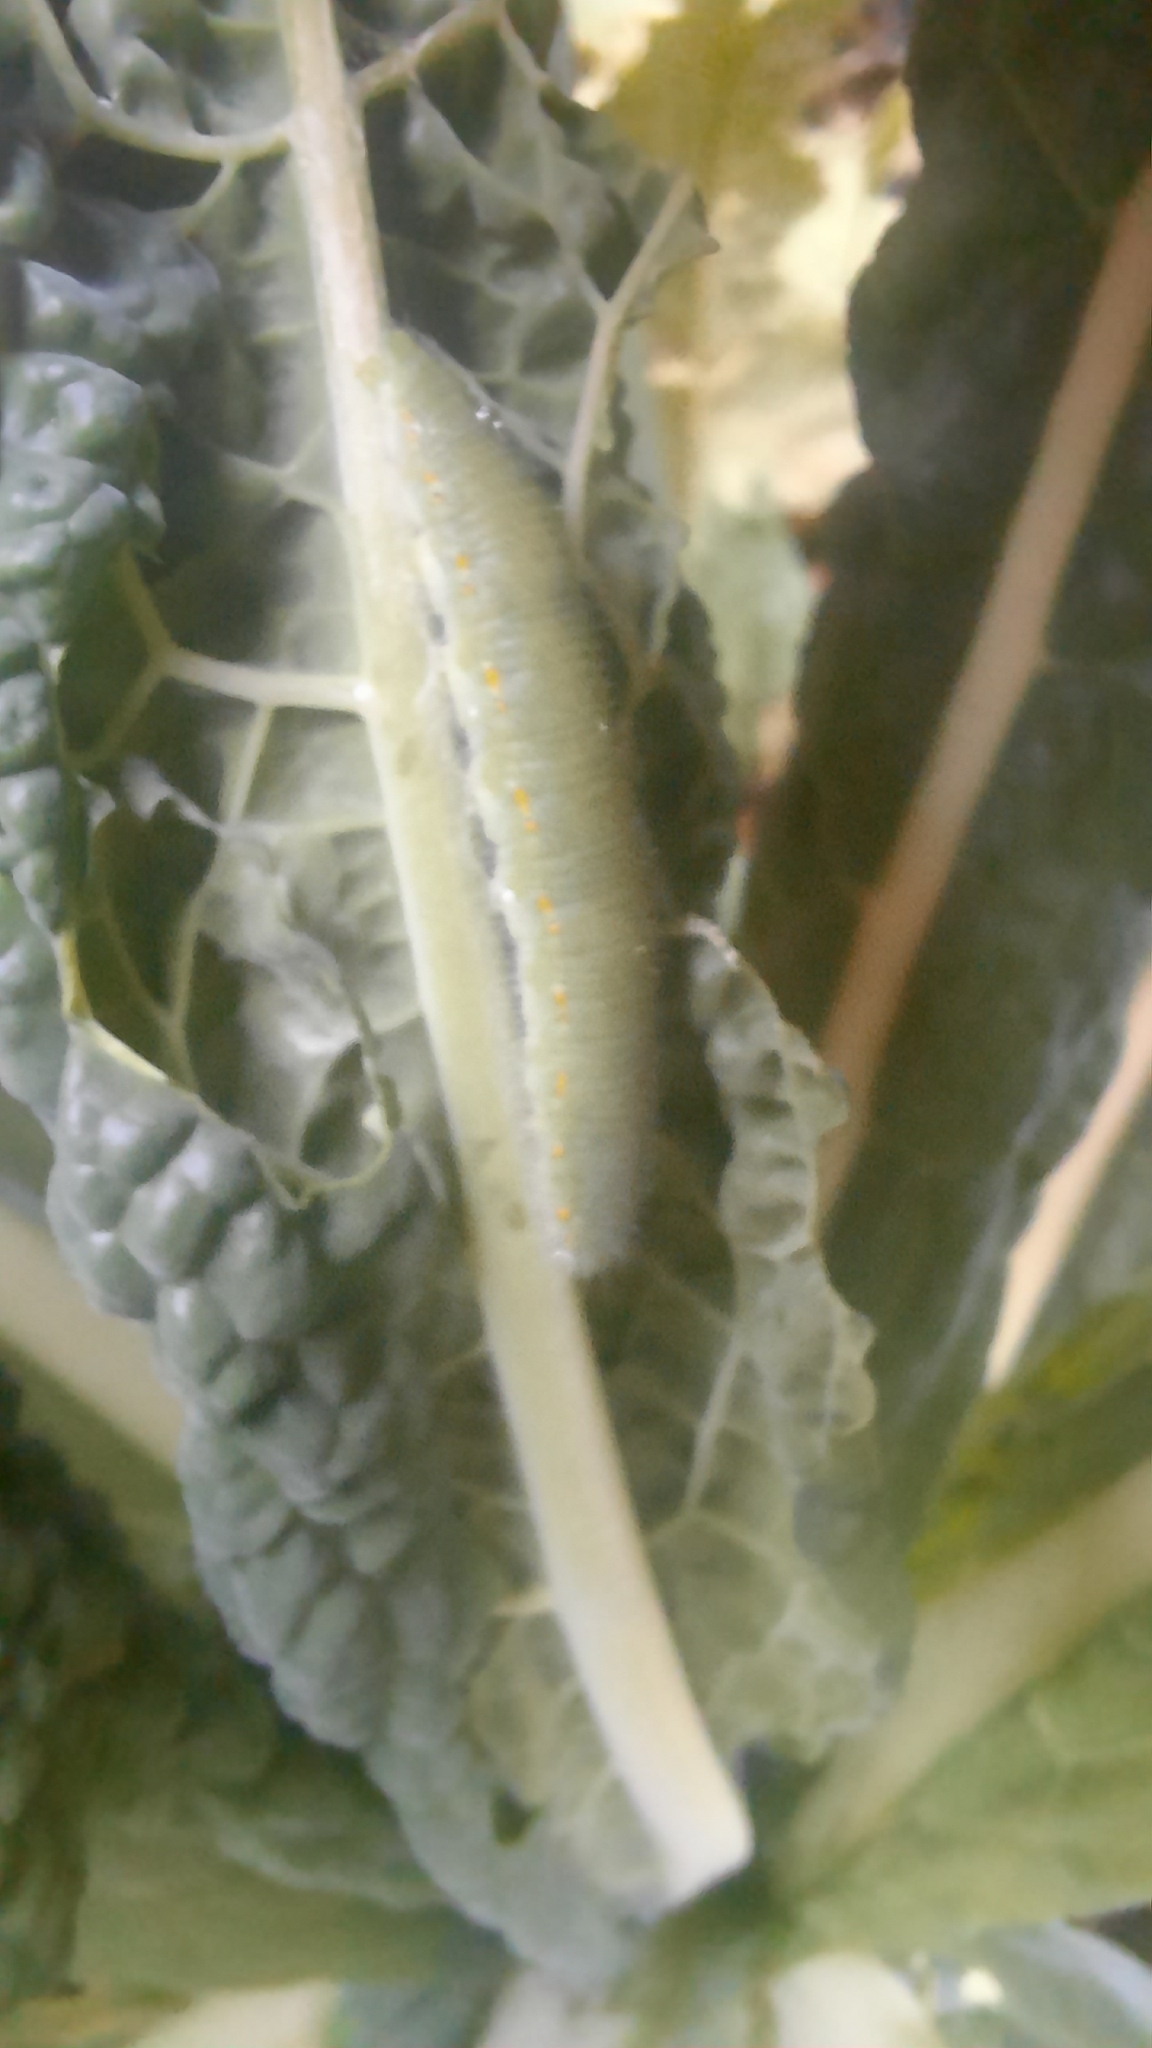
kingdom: Animalia
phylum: Arthropoda
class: Insecta
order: Lepidoptera
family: Pieridae
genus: Pieris
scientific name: Pieris rapae
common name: Small white
